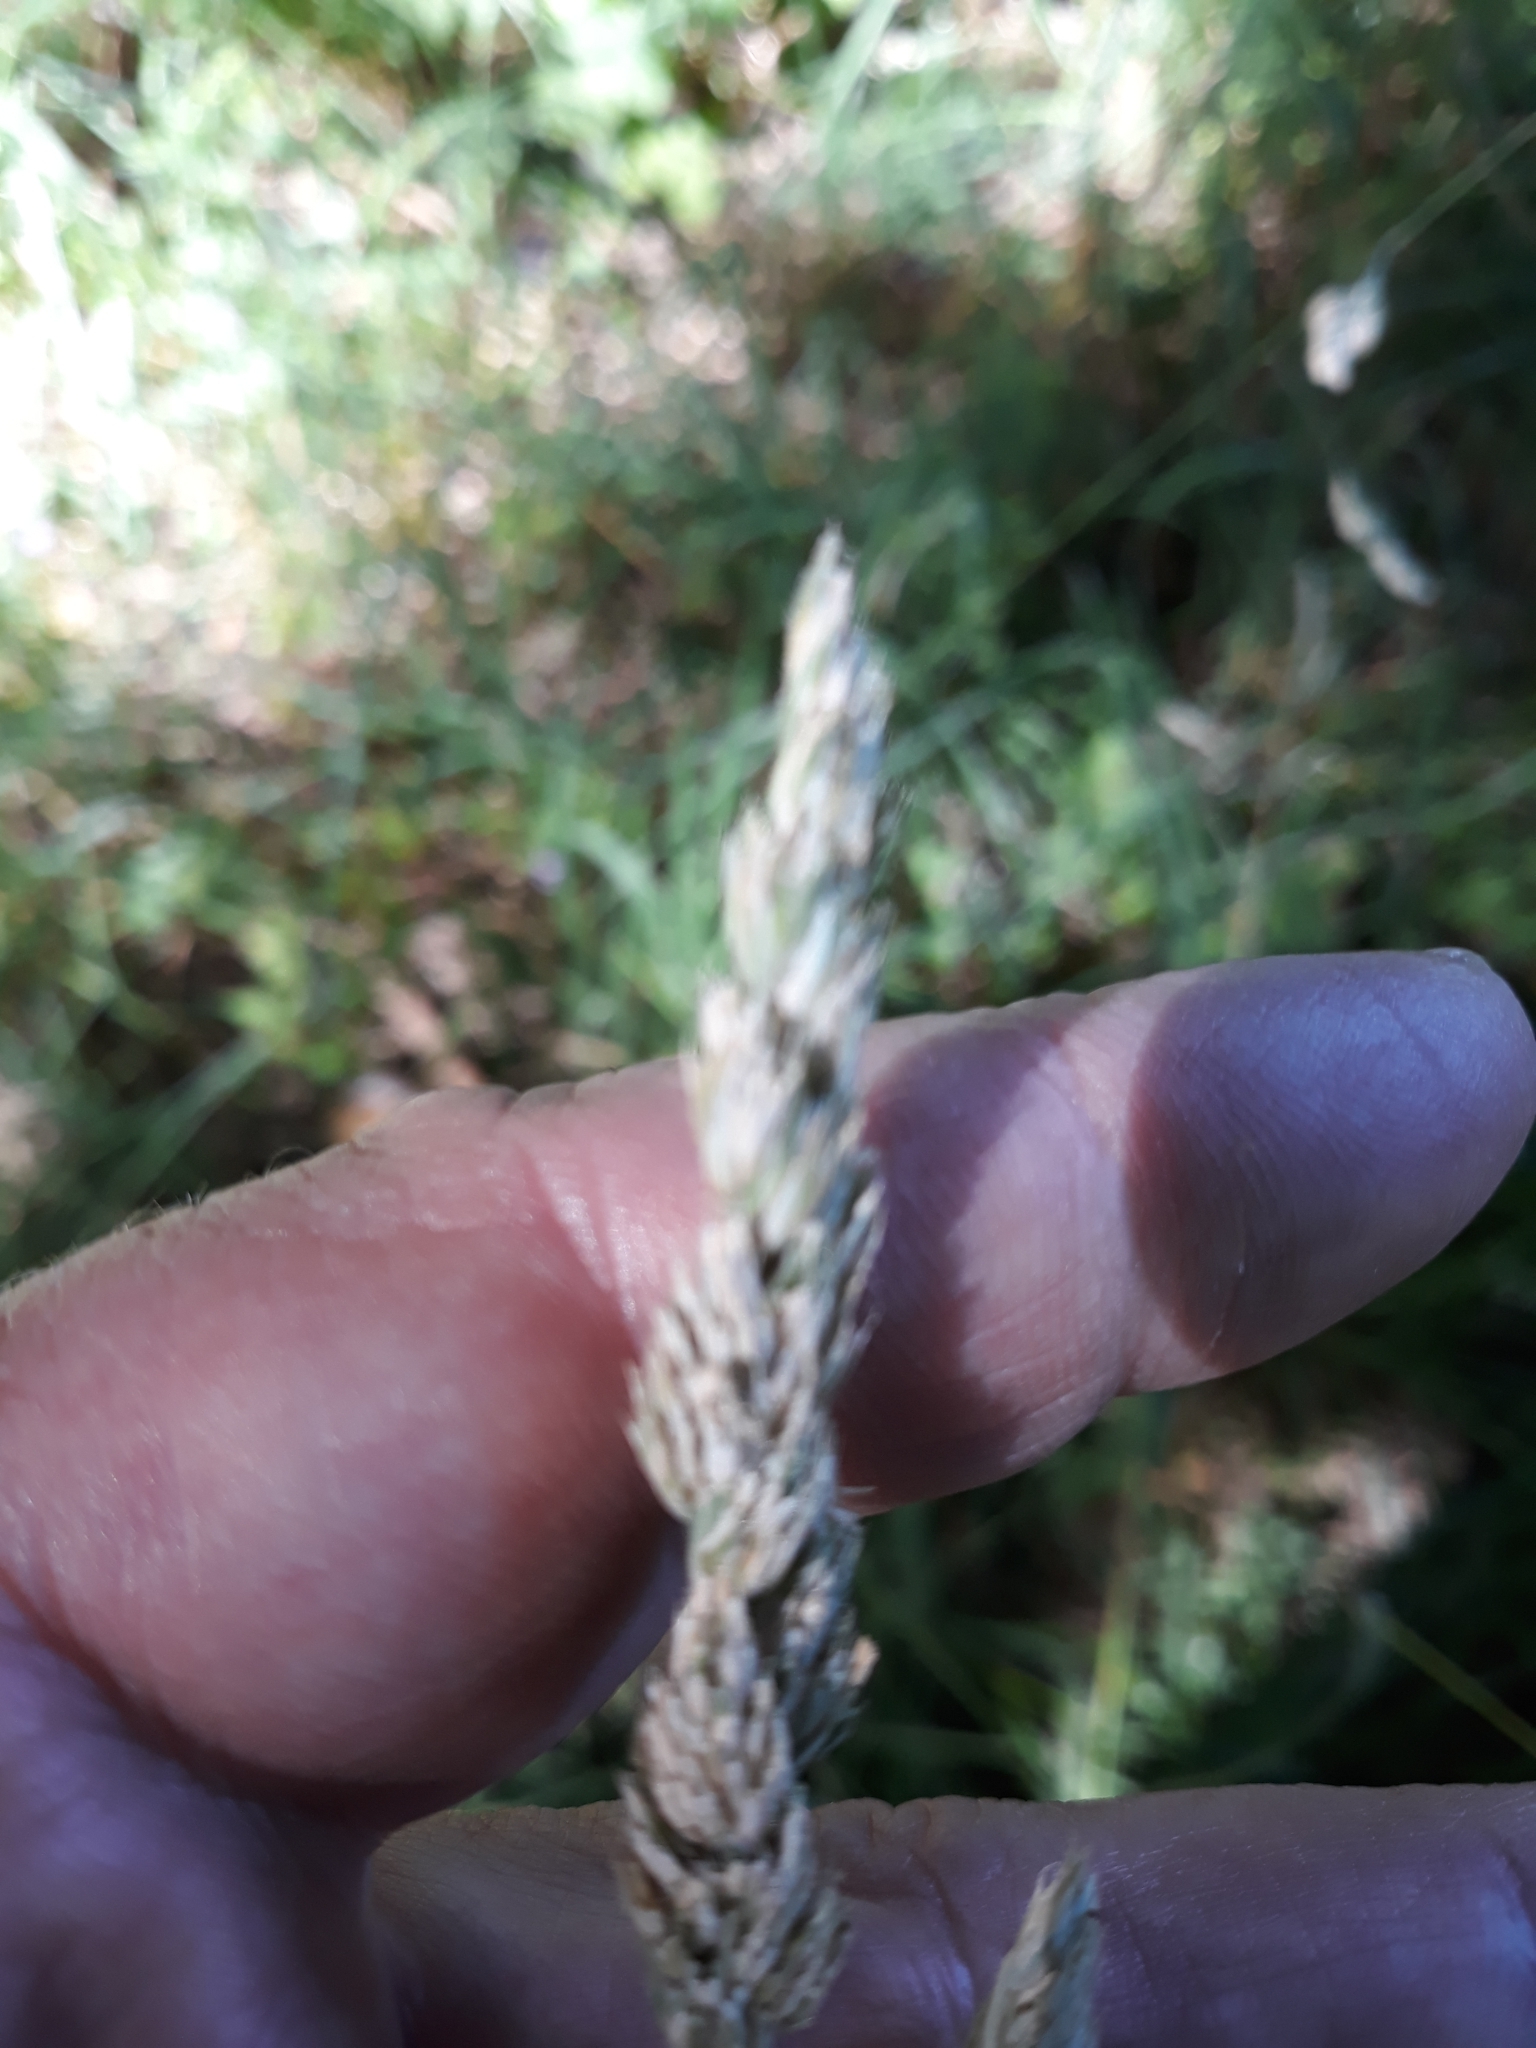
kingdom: Plantae
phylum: Tracheophyta
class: Liliopsida
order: Poales
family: Poaceae
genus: Dactylis
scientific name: Dactylis glomerata
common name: Orchardgrass
